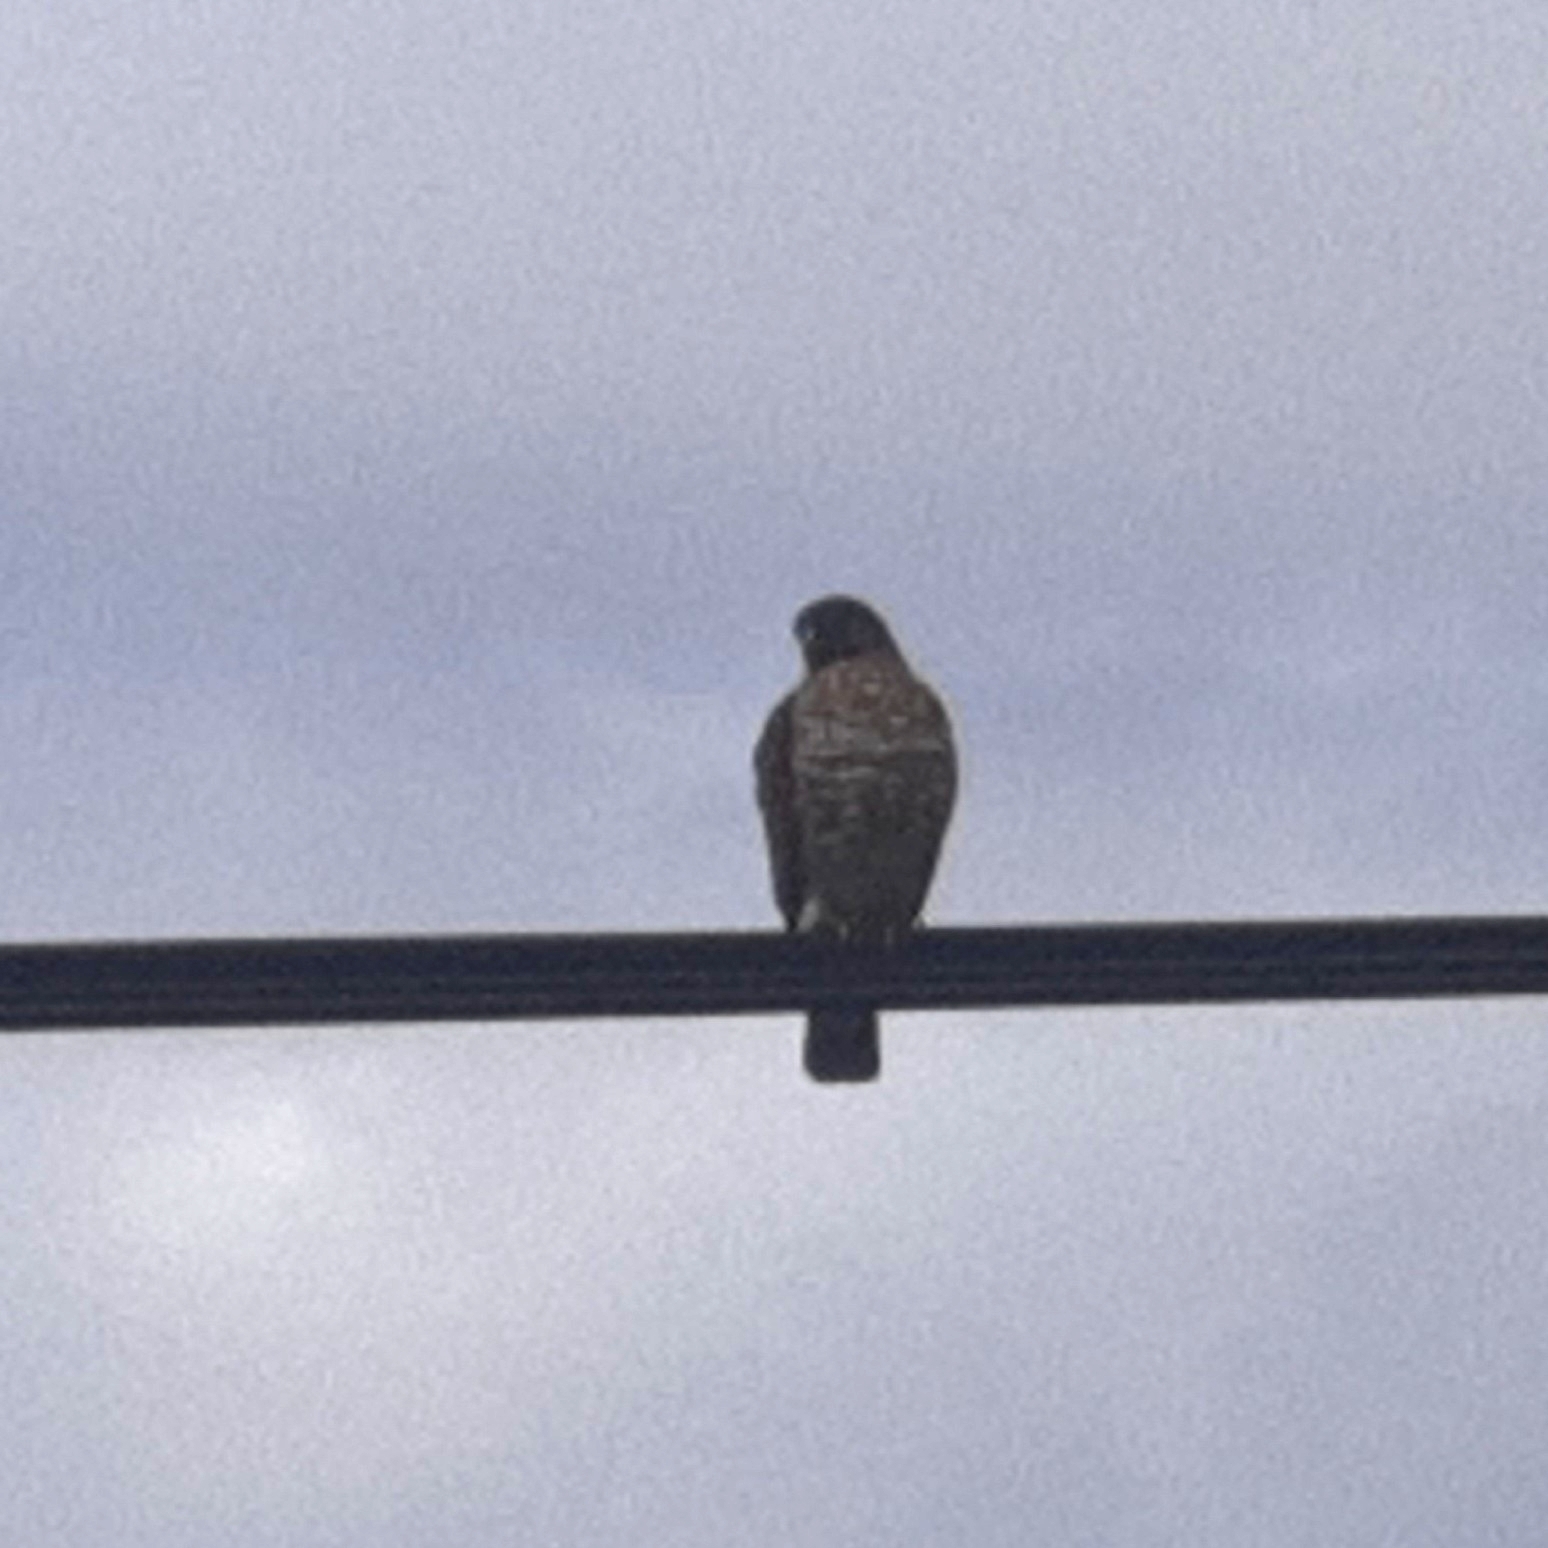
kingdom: Animalia
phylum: Chordata
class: Aves
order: Accipitriformes
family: Accipitridae
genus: Buteo
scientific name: Buteo platypterus
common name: Broad-winged hawk
